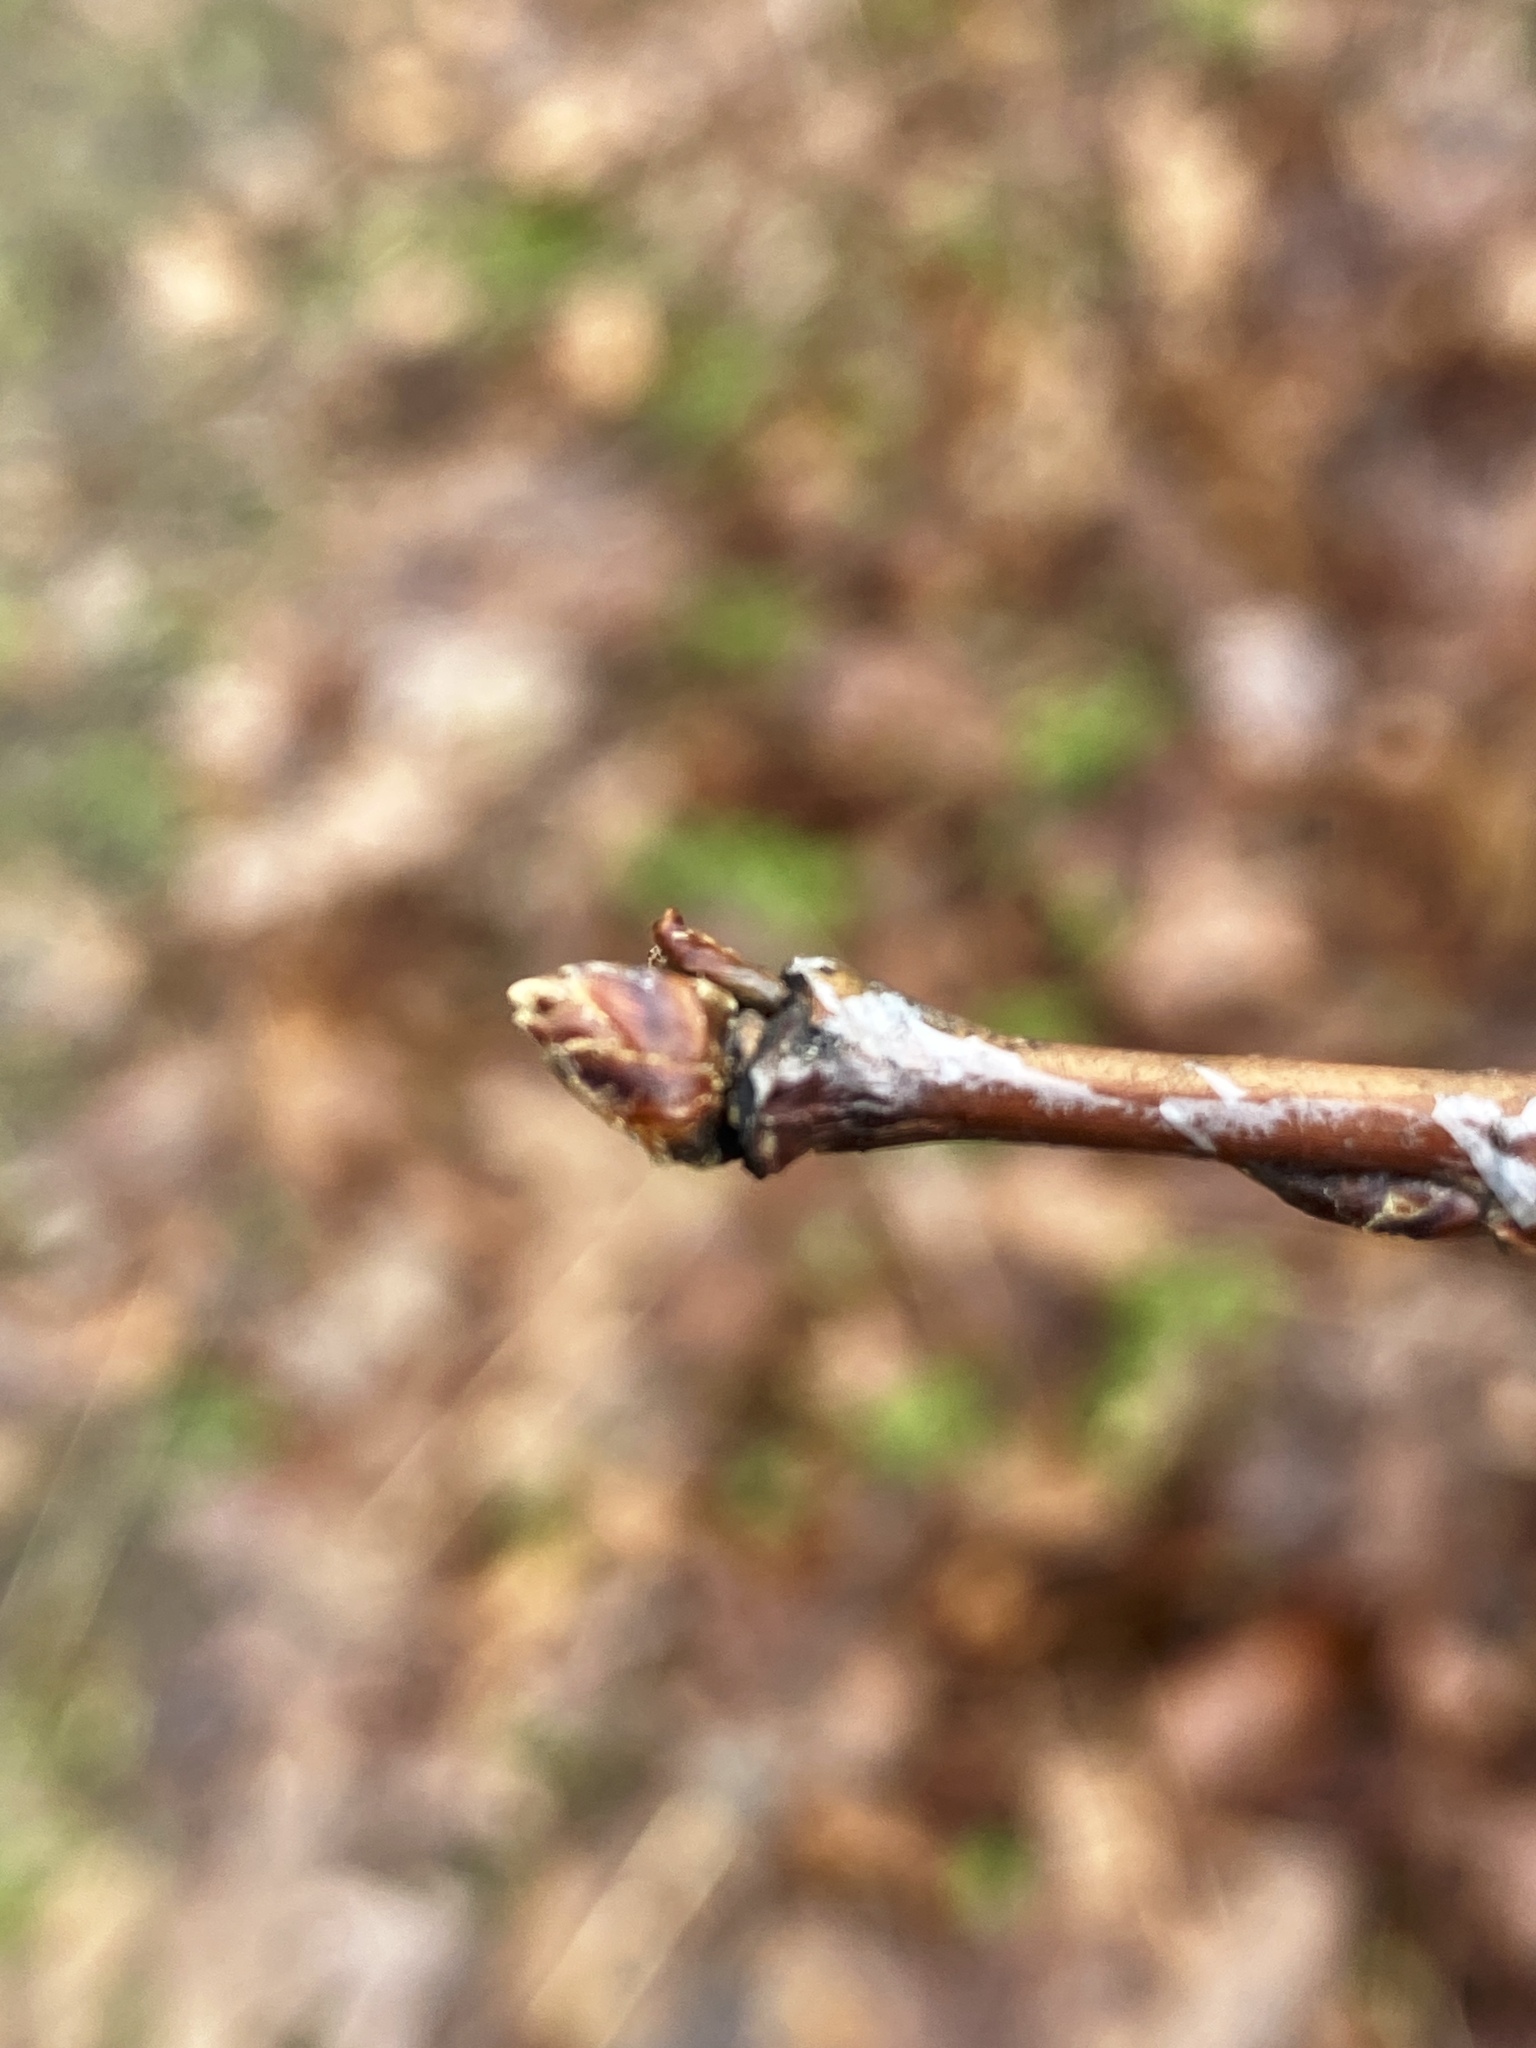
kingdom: Plantae
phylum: Tracheophyta
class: Magnoliopsida
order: Malpighiales
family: Salicaceae
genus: Populus
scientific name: Populus tremuloides
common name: Quaking aspen
